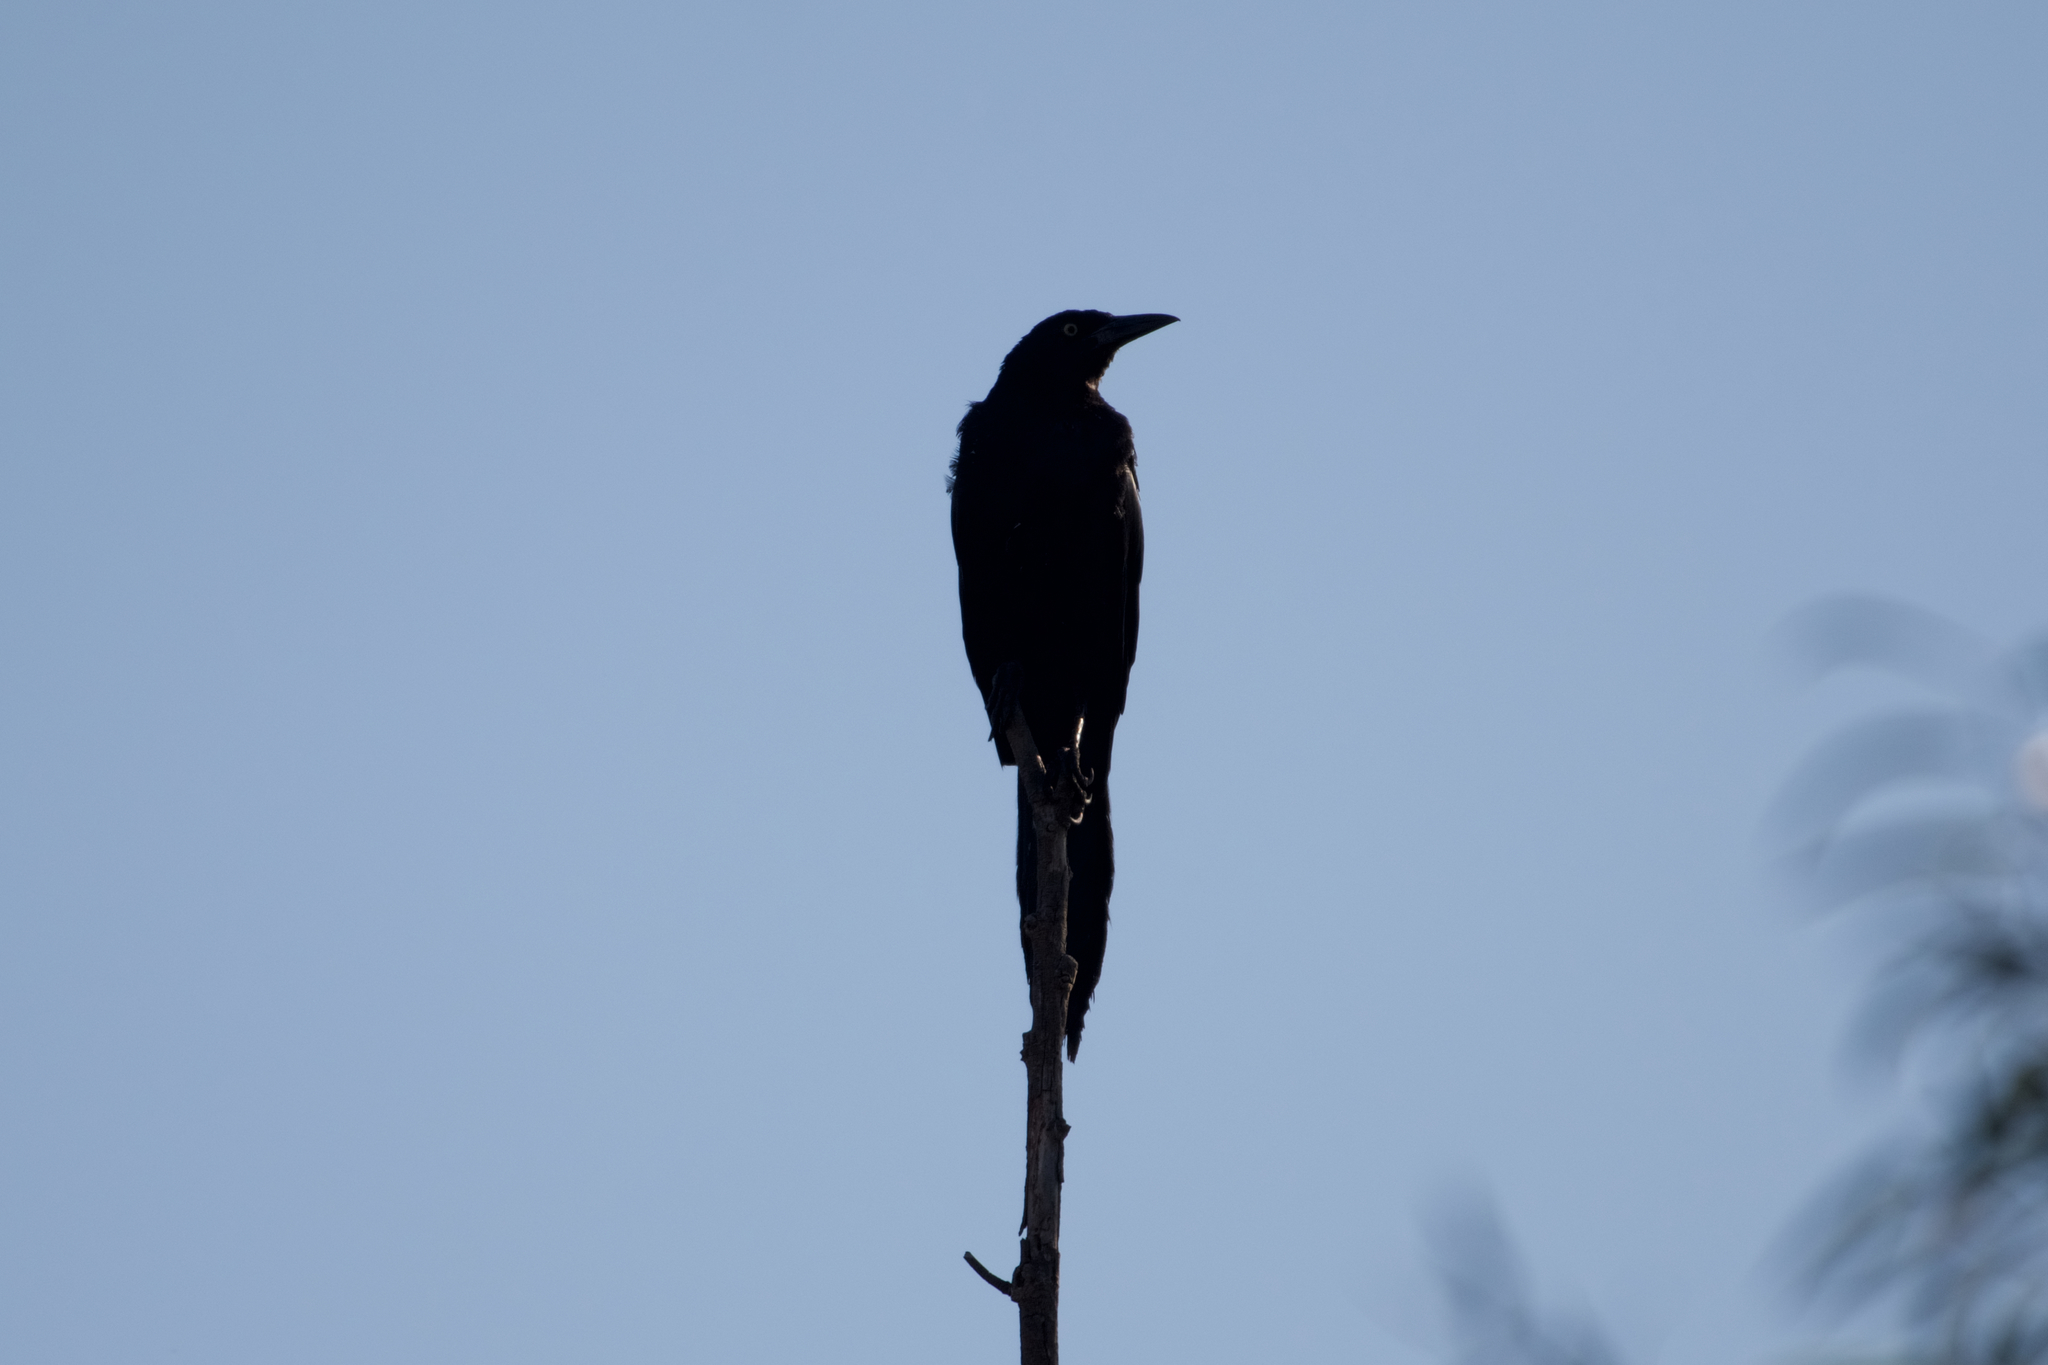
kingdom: Animalia
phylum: Chordata
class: Aves
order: Passeriformes
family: Icteridae
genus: Quiscalus
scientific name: Quiscalus mexicanus
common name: Great-tailed grackle
